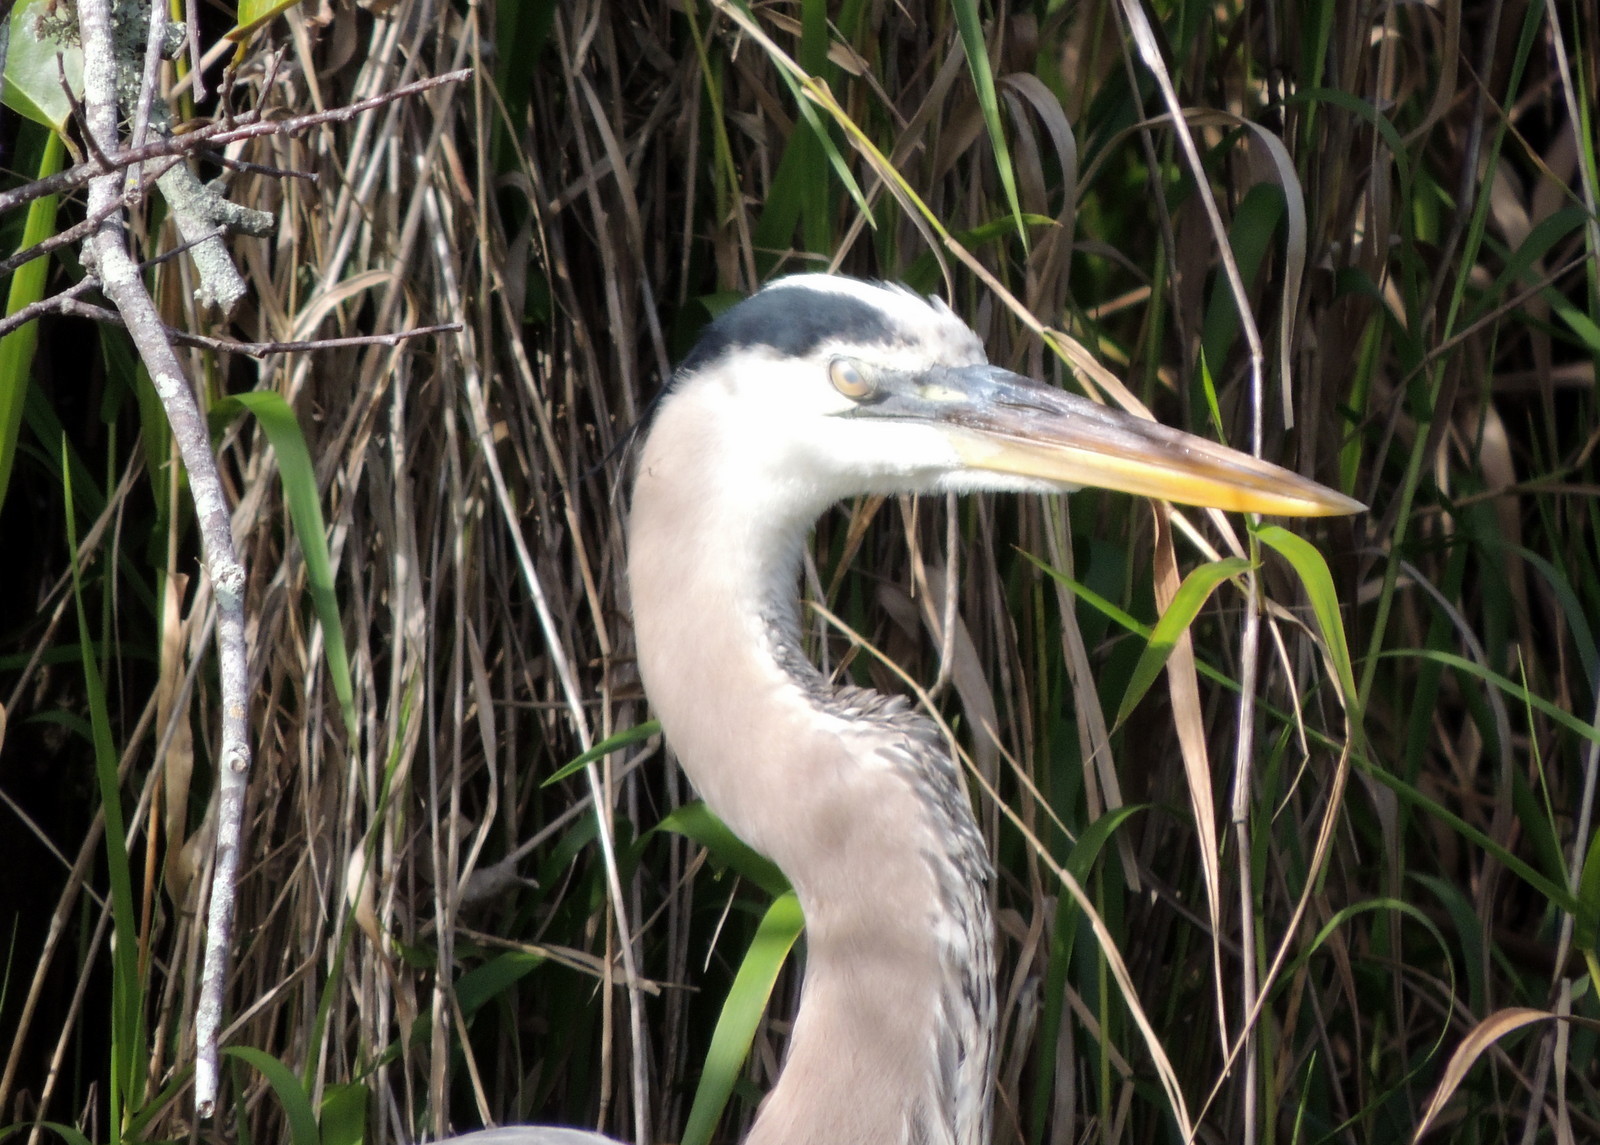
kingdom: Animalia
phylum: Chordata
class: Aves
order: Pelecaniformes
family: Ardeidae
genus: Ardea
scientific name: Ardea herodias
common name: Great blue heron
